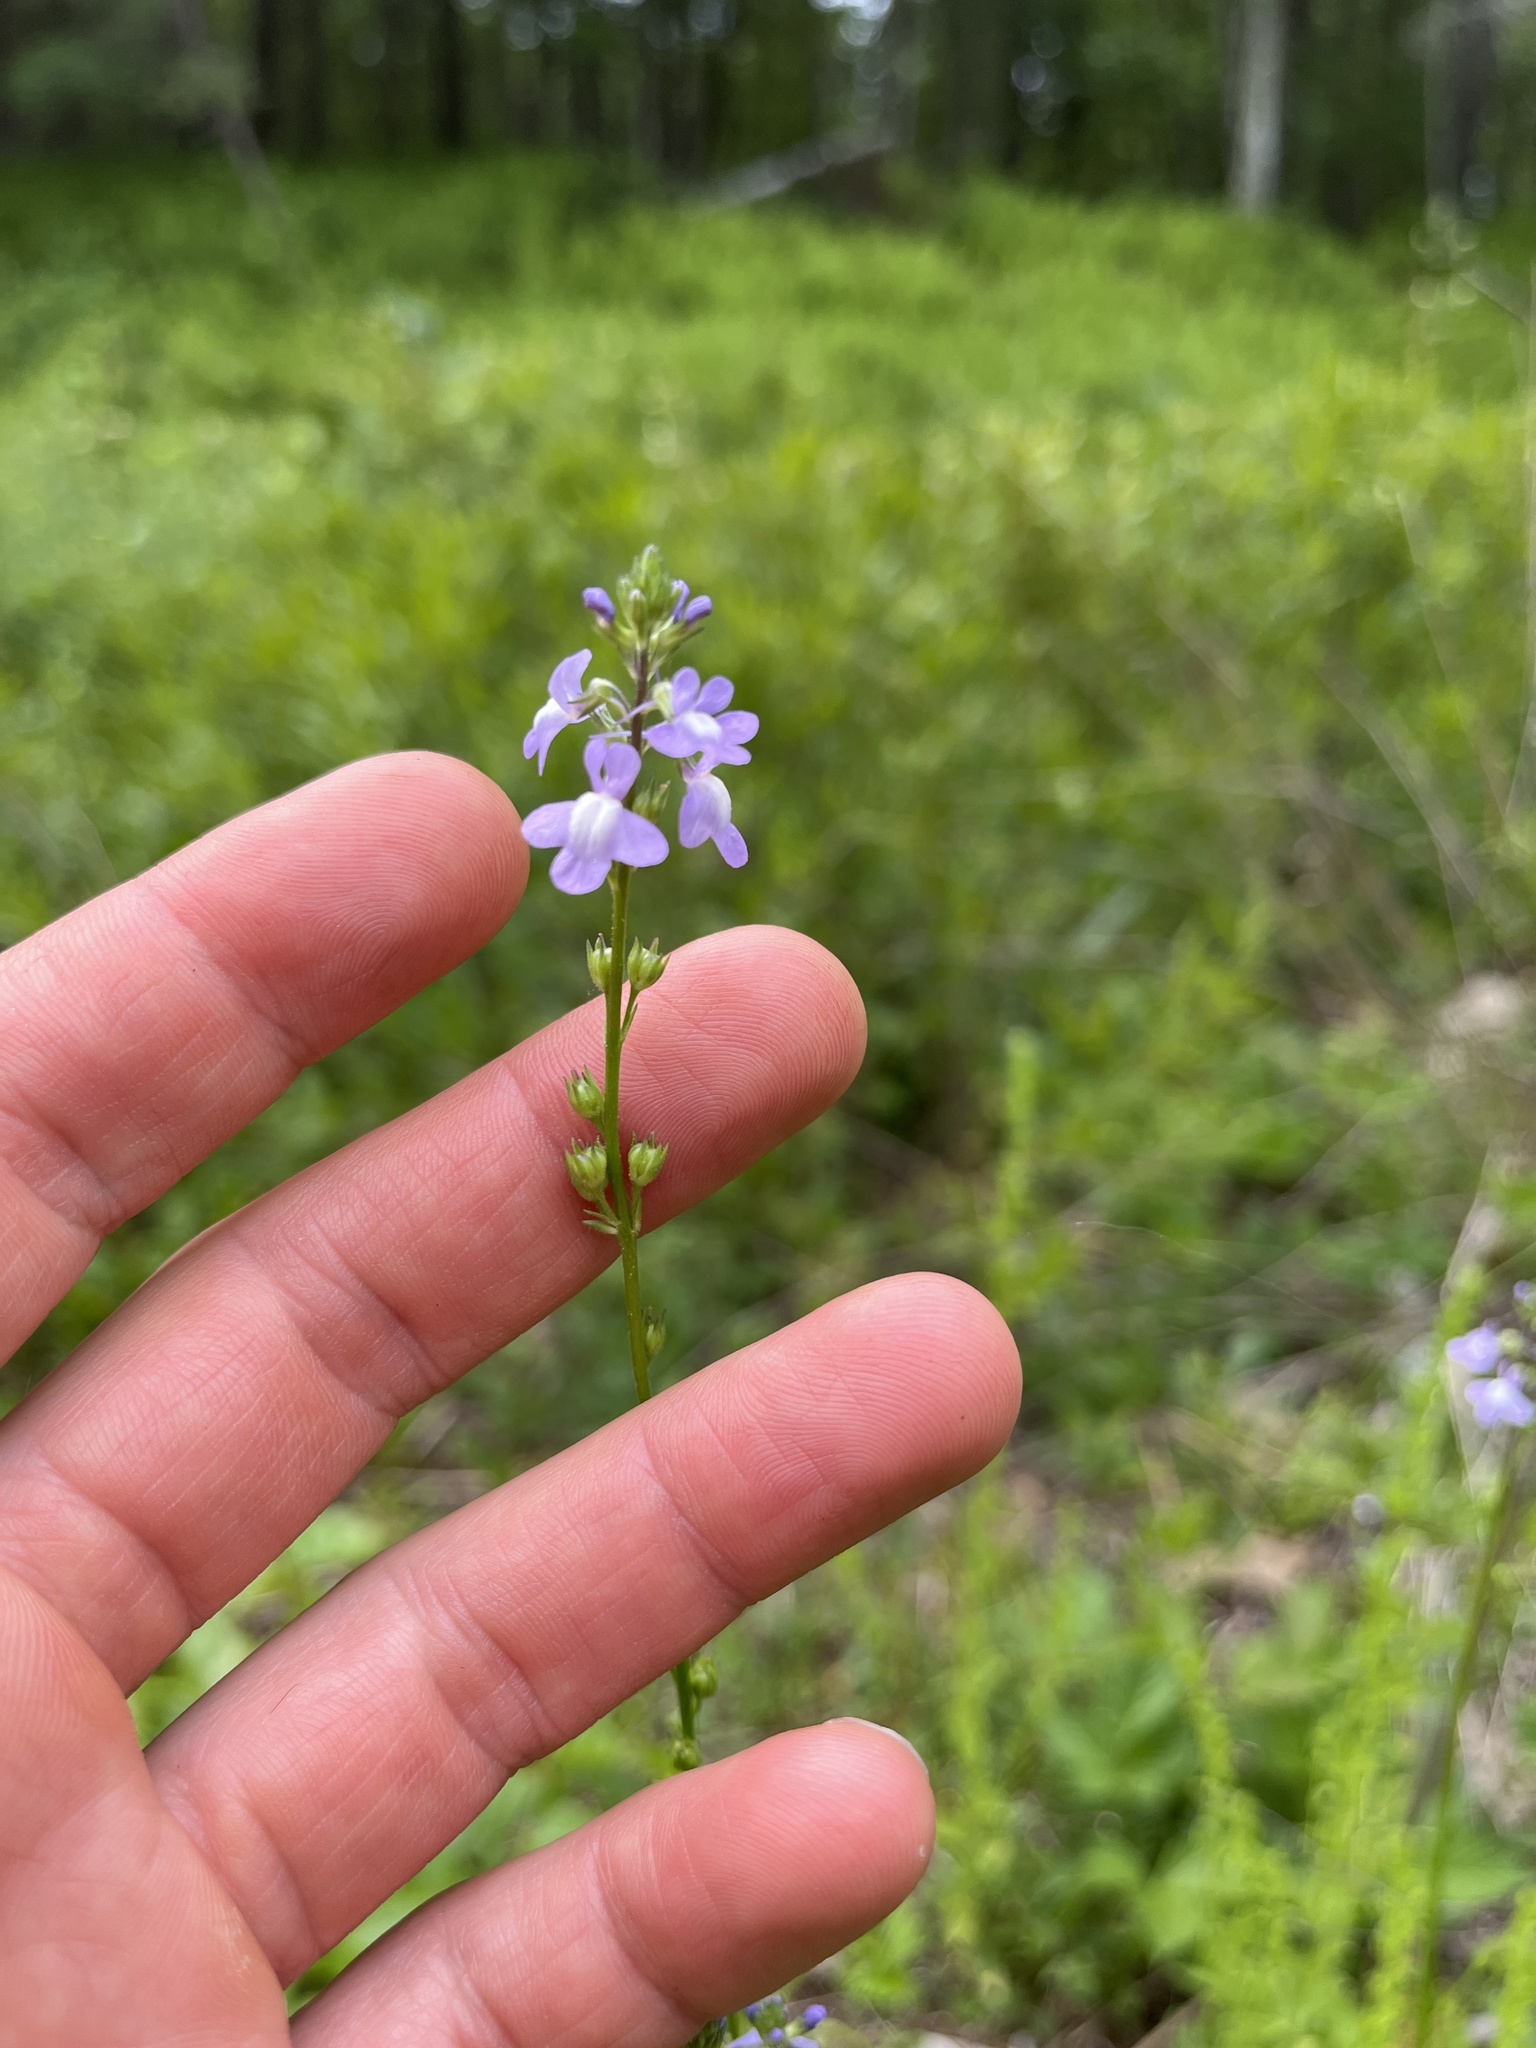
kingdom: Plantae
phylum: Tracheophyta
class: Magnoliopsida
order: Lamiales
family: Plantaginaceae
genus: Nuttallanthus
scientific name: Nuttallanthus canadensis
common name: Blue toadflax
